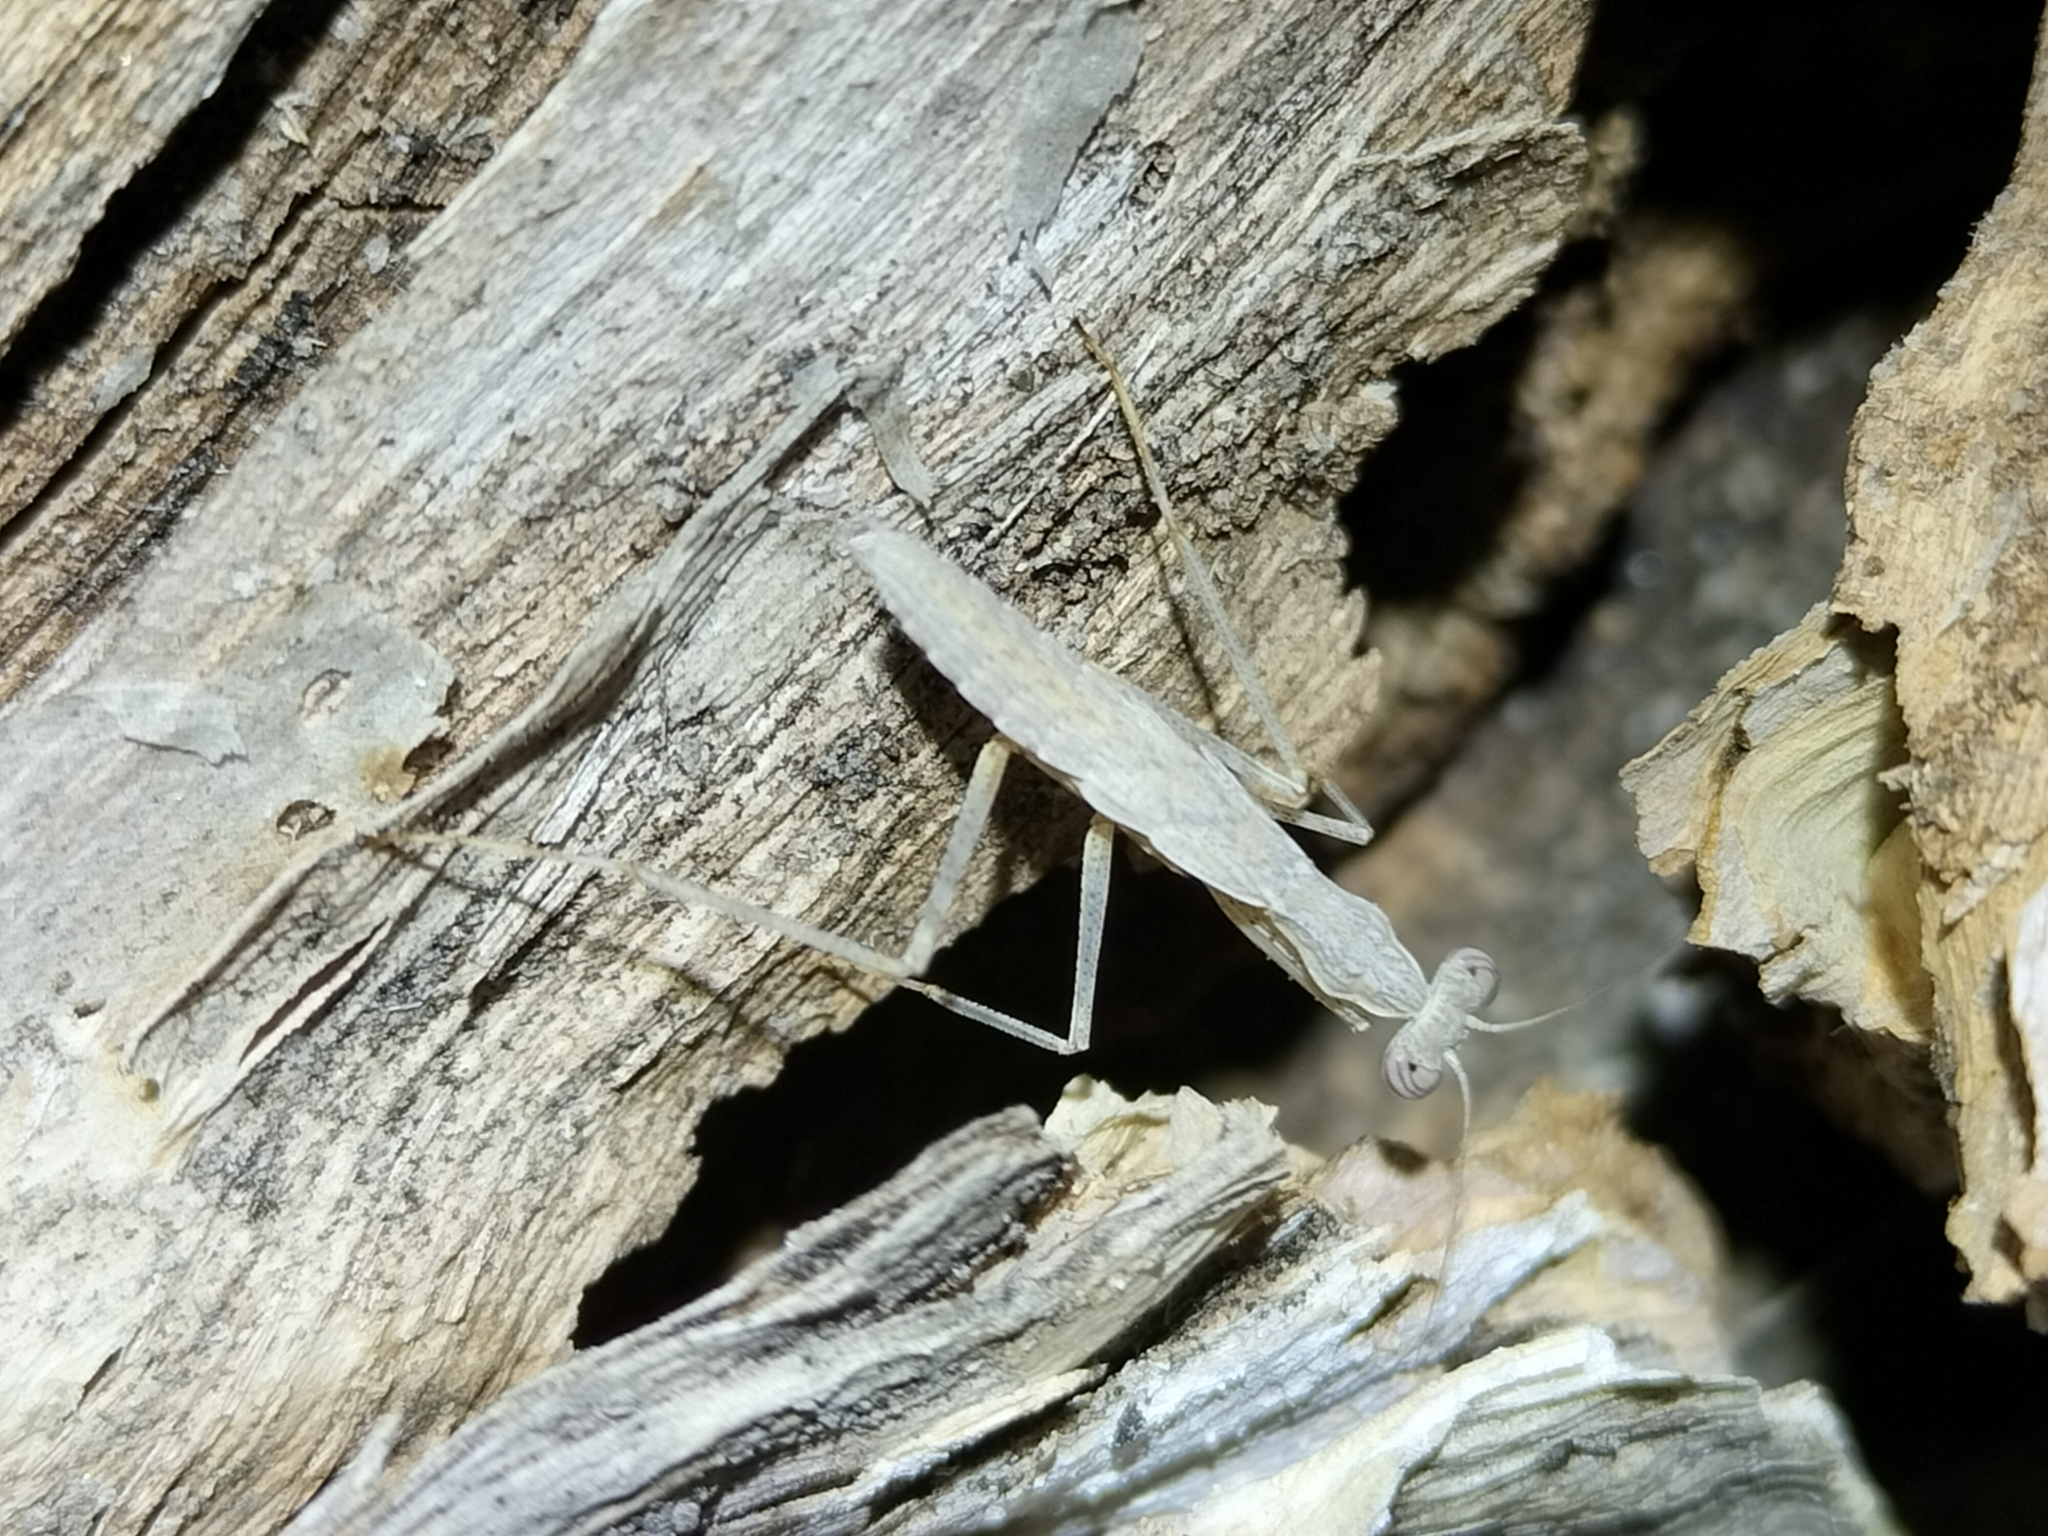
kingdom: Animalia
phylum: Arthropoda
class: Insecta
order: Mantodea
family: Nanomantidae
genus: Ima
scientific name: Ima fusca
